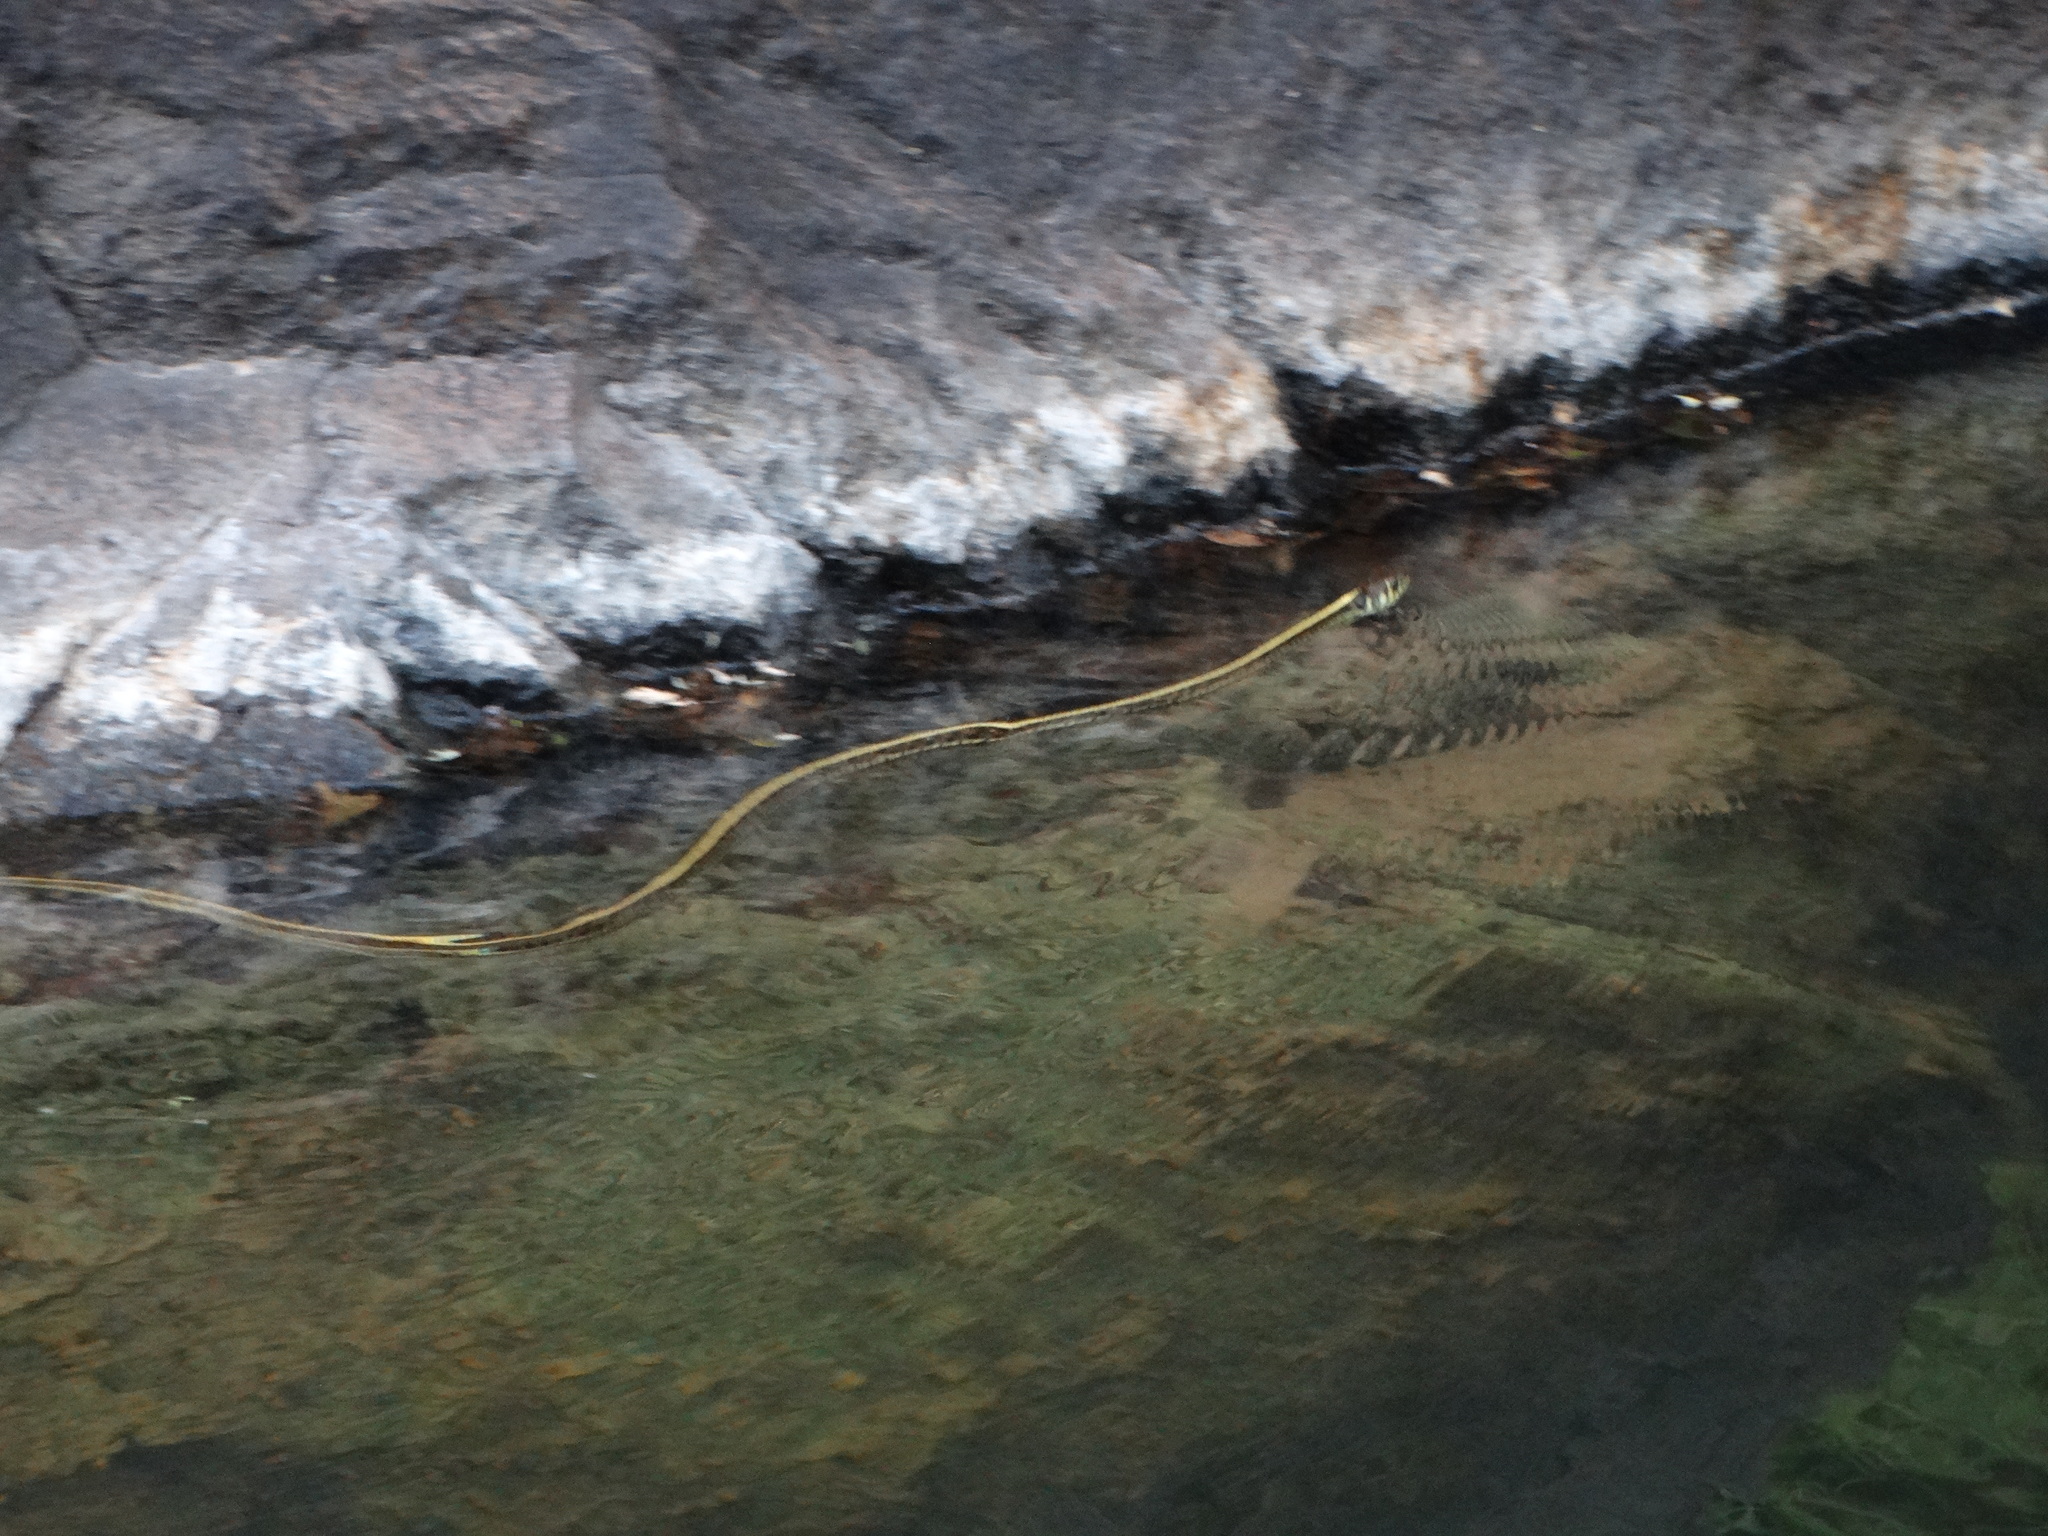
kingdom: Animalia
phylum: Chordata
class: Squamata
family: Colubridae
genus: Thamnophis
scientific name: Thamnophis eques
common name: Mexican garter snake
